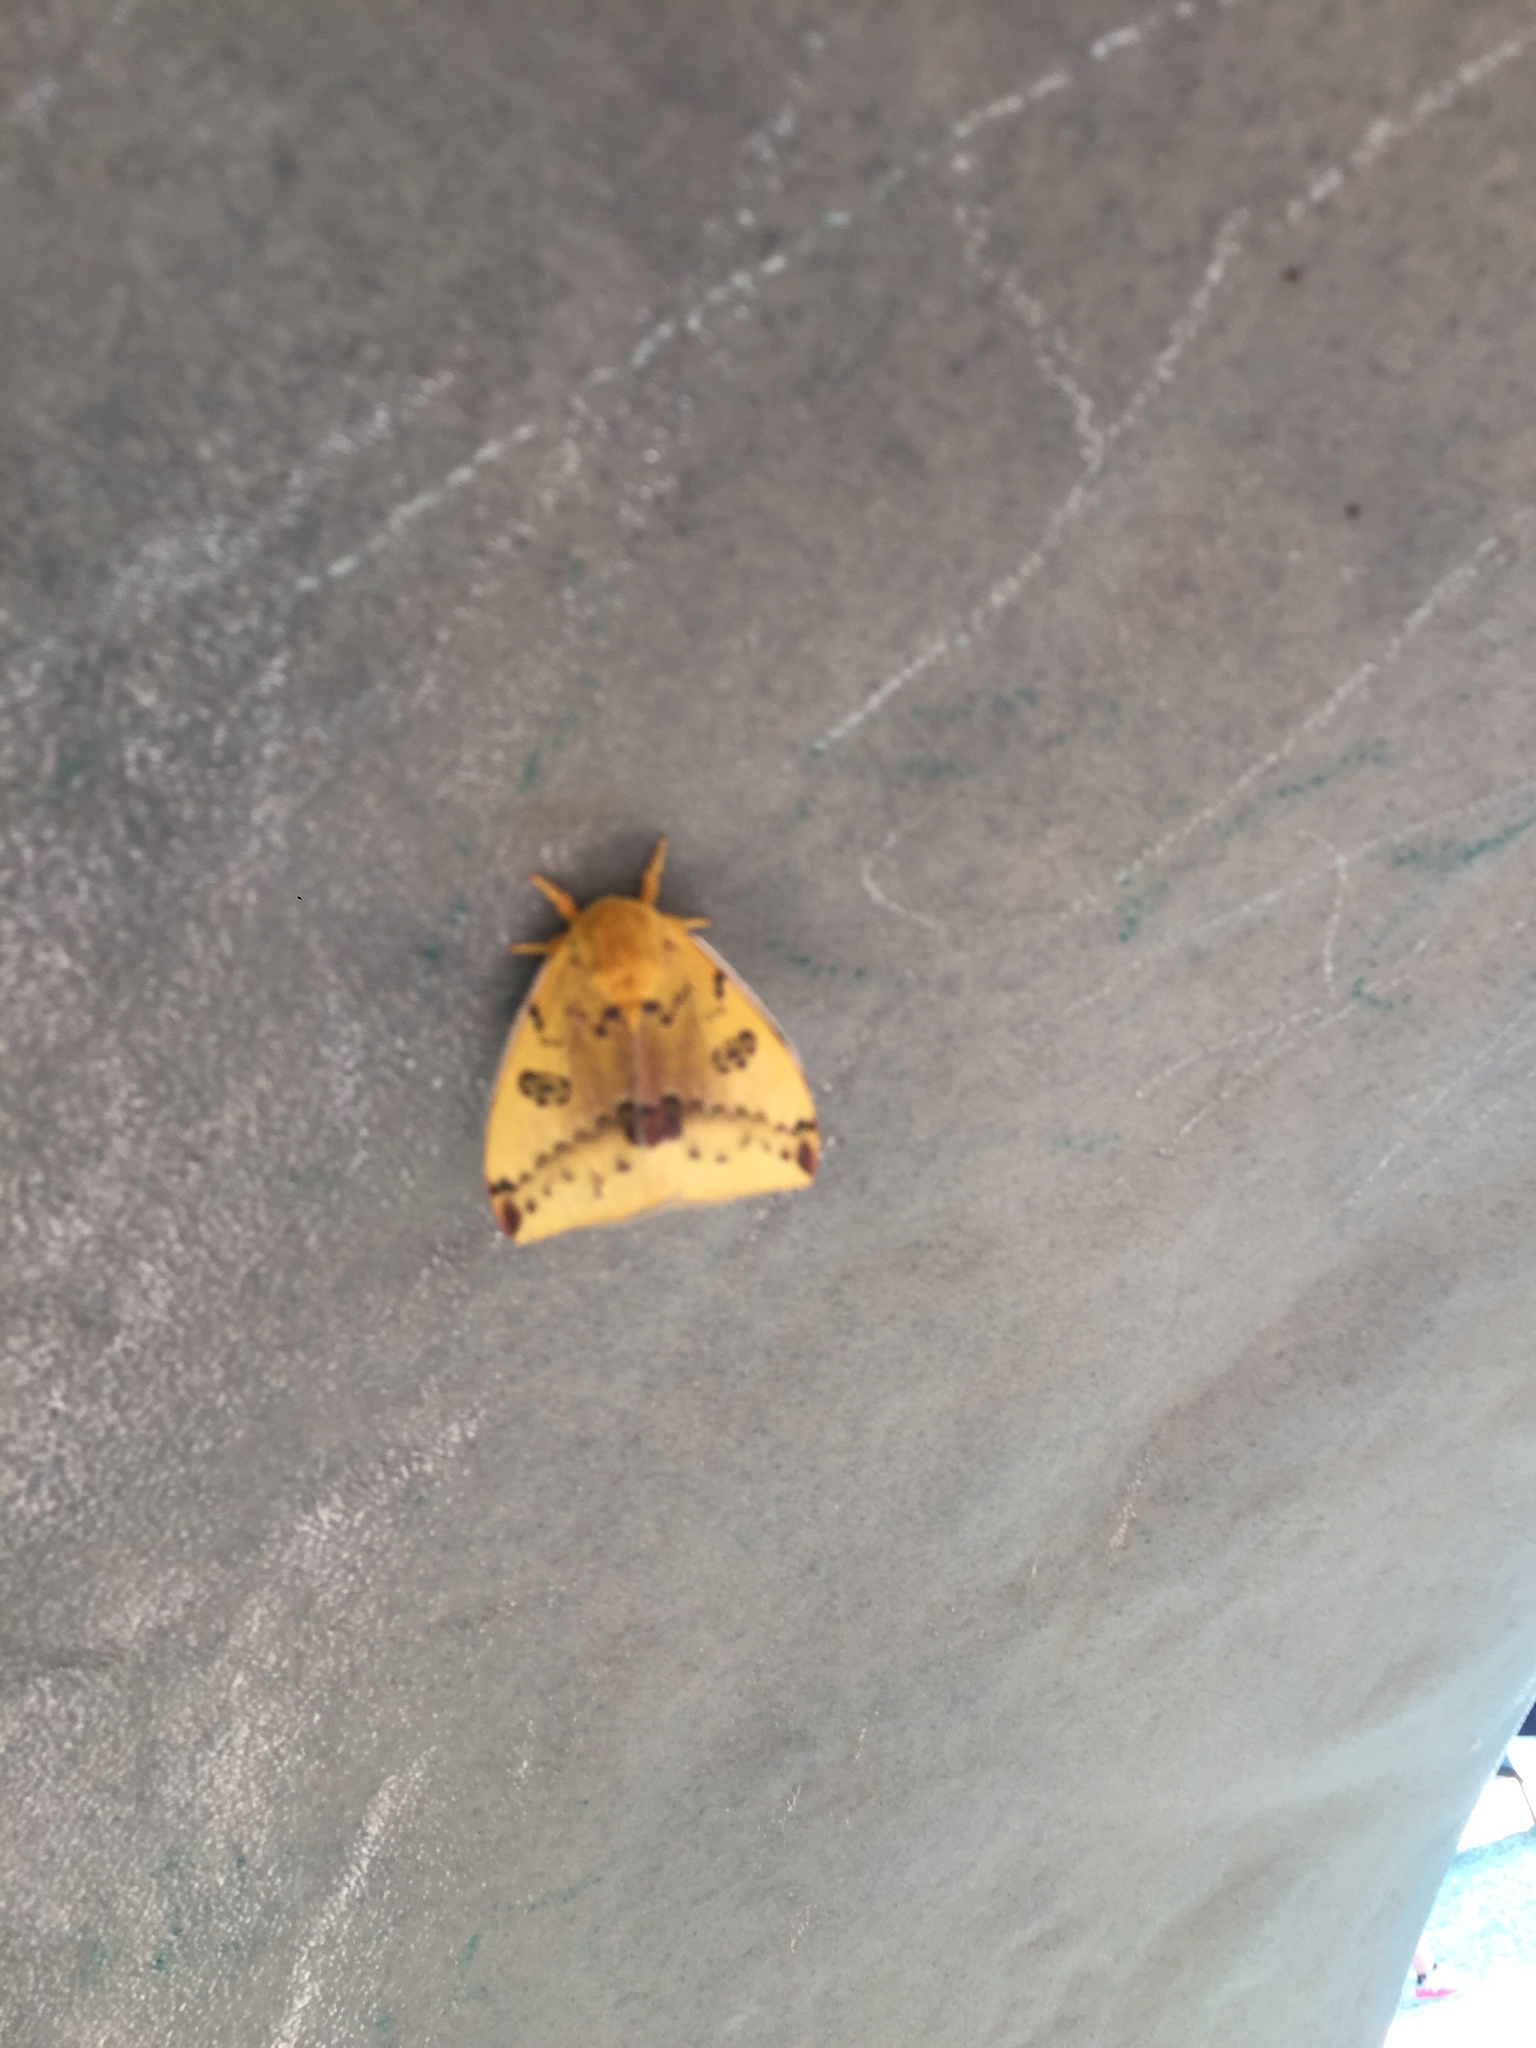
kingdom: Animalia
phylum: Arthropoda
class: Insecta
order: Lepidoptera
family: Saturniidae
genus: Automeris
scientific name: Automeris io
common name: Io moth
